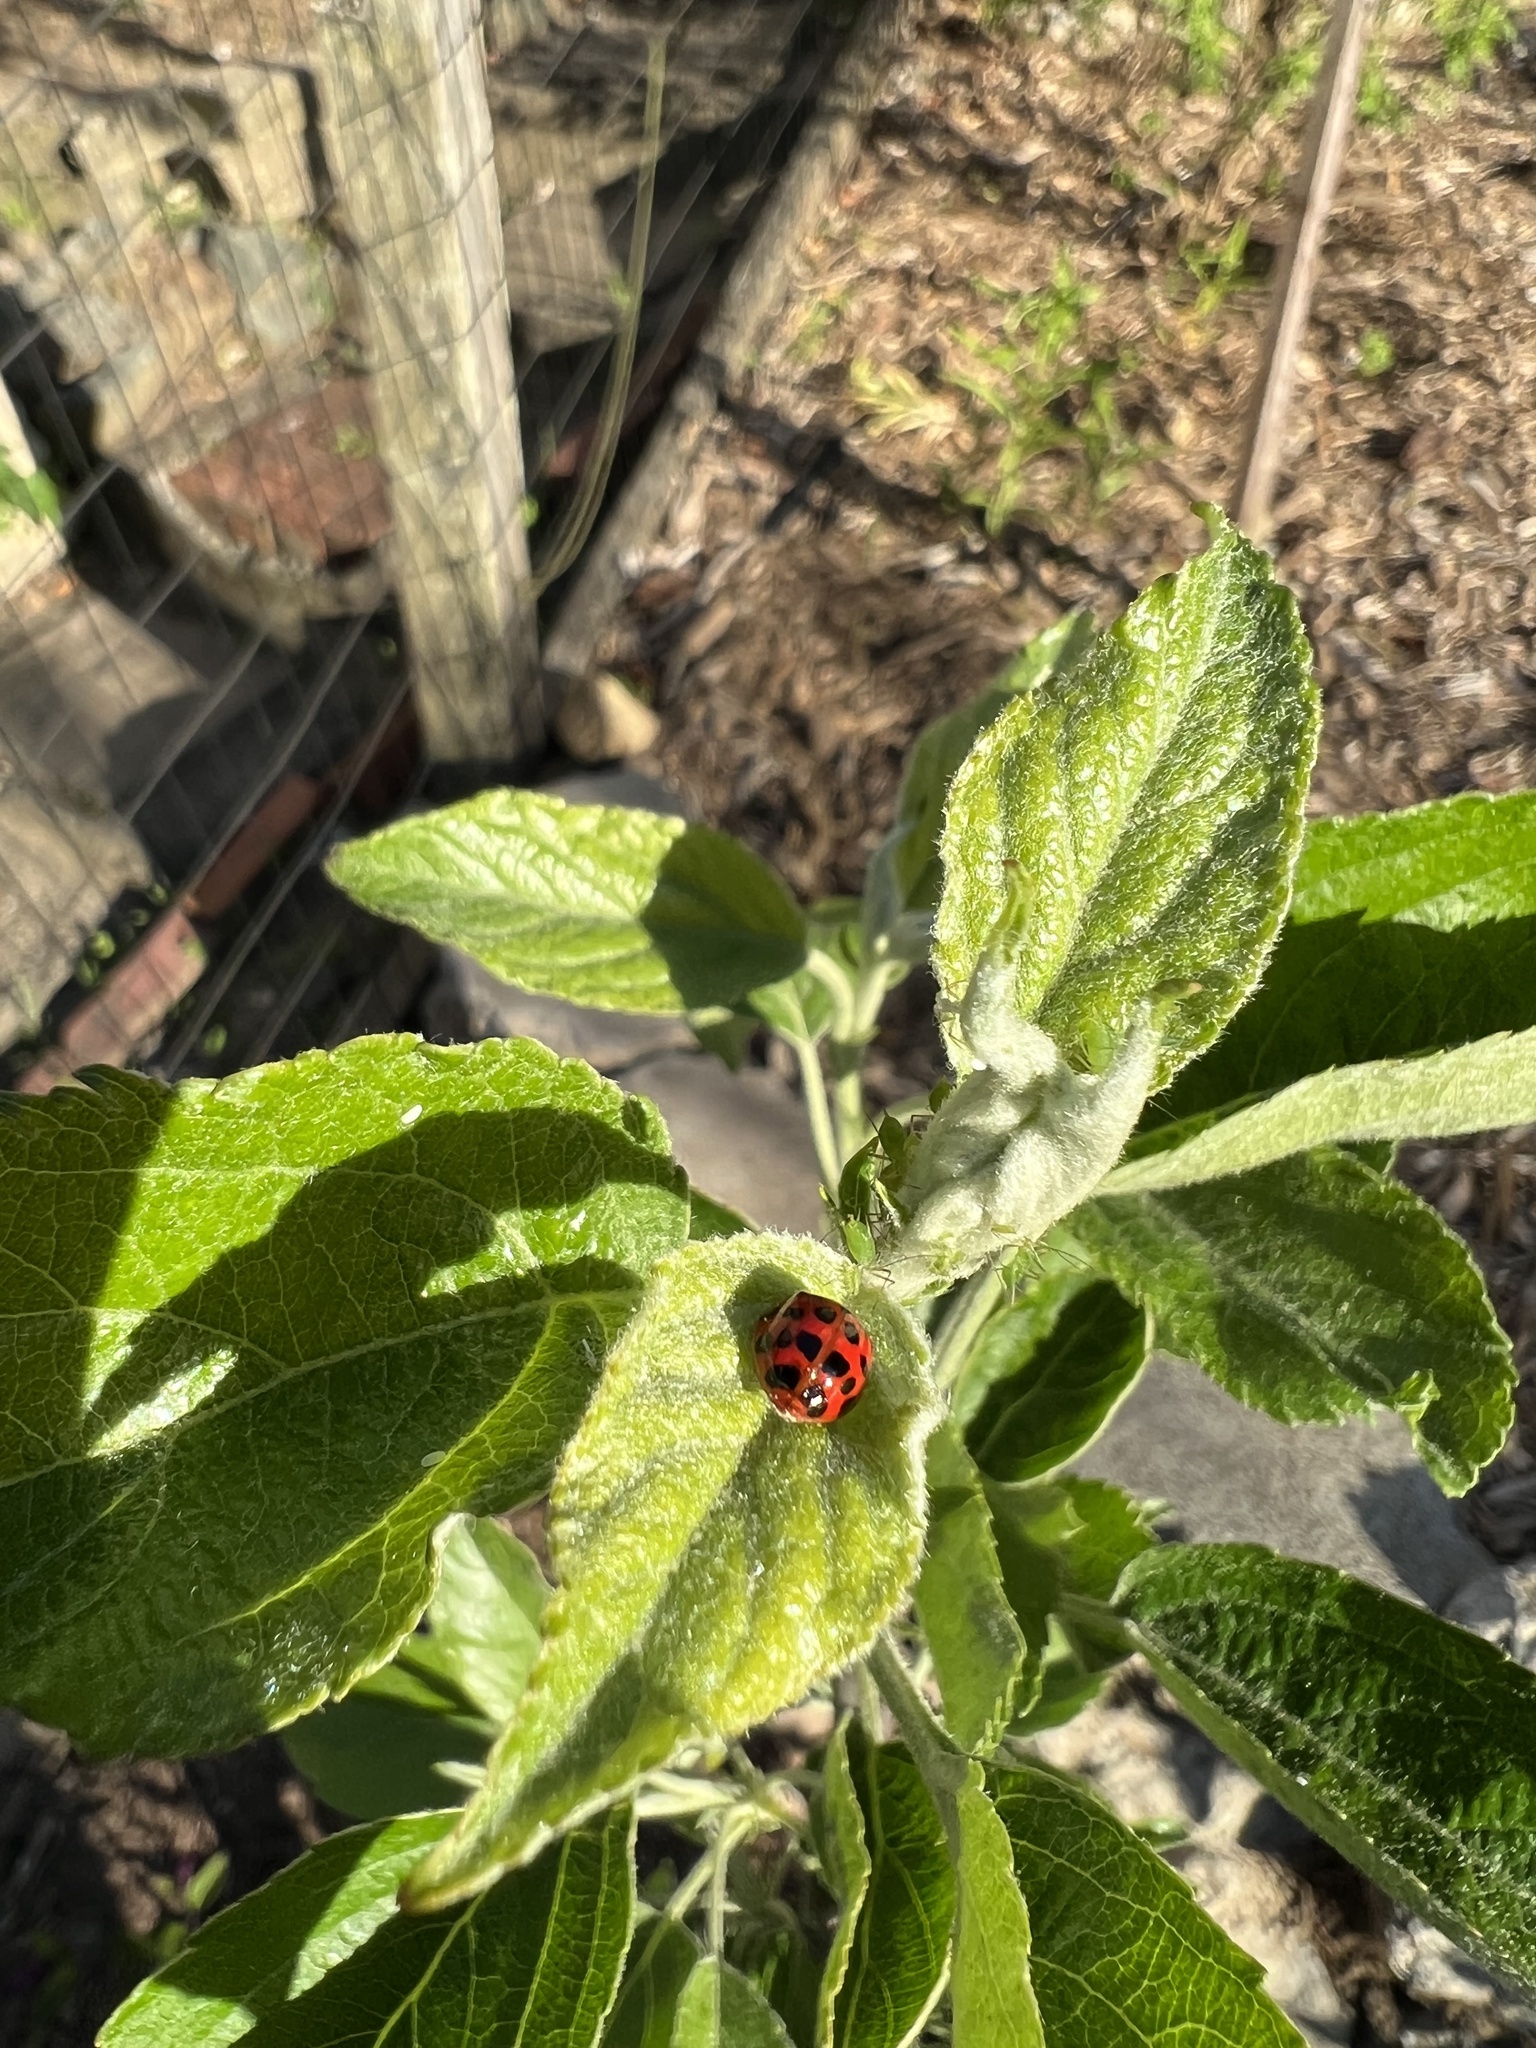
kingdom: Animalia
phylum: Arthropoda
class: Insecta
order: Coleoptera
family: Coccinellidae
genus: Harmonia
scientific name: Harmonia axyridis
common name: Harlequin ladybird
